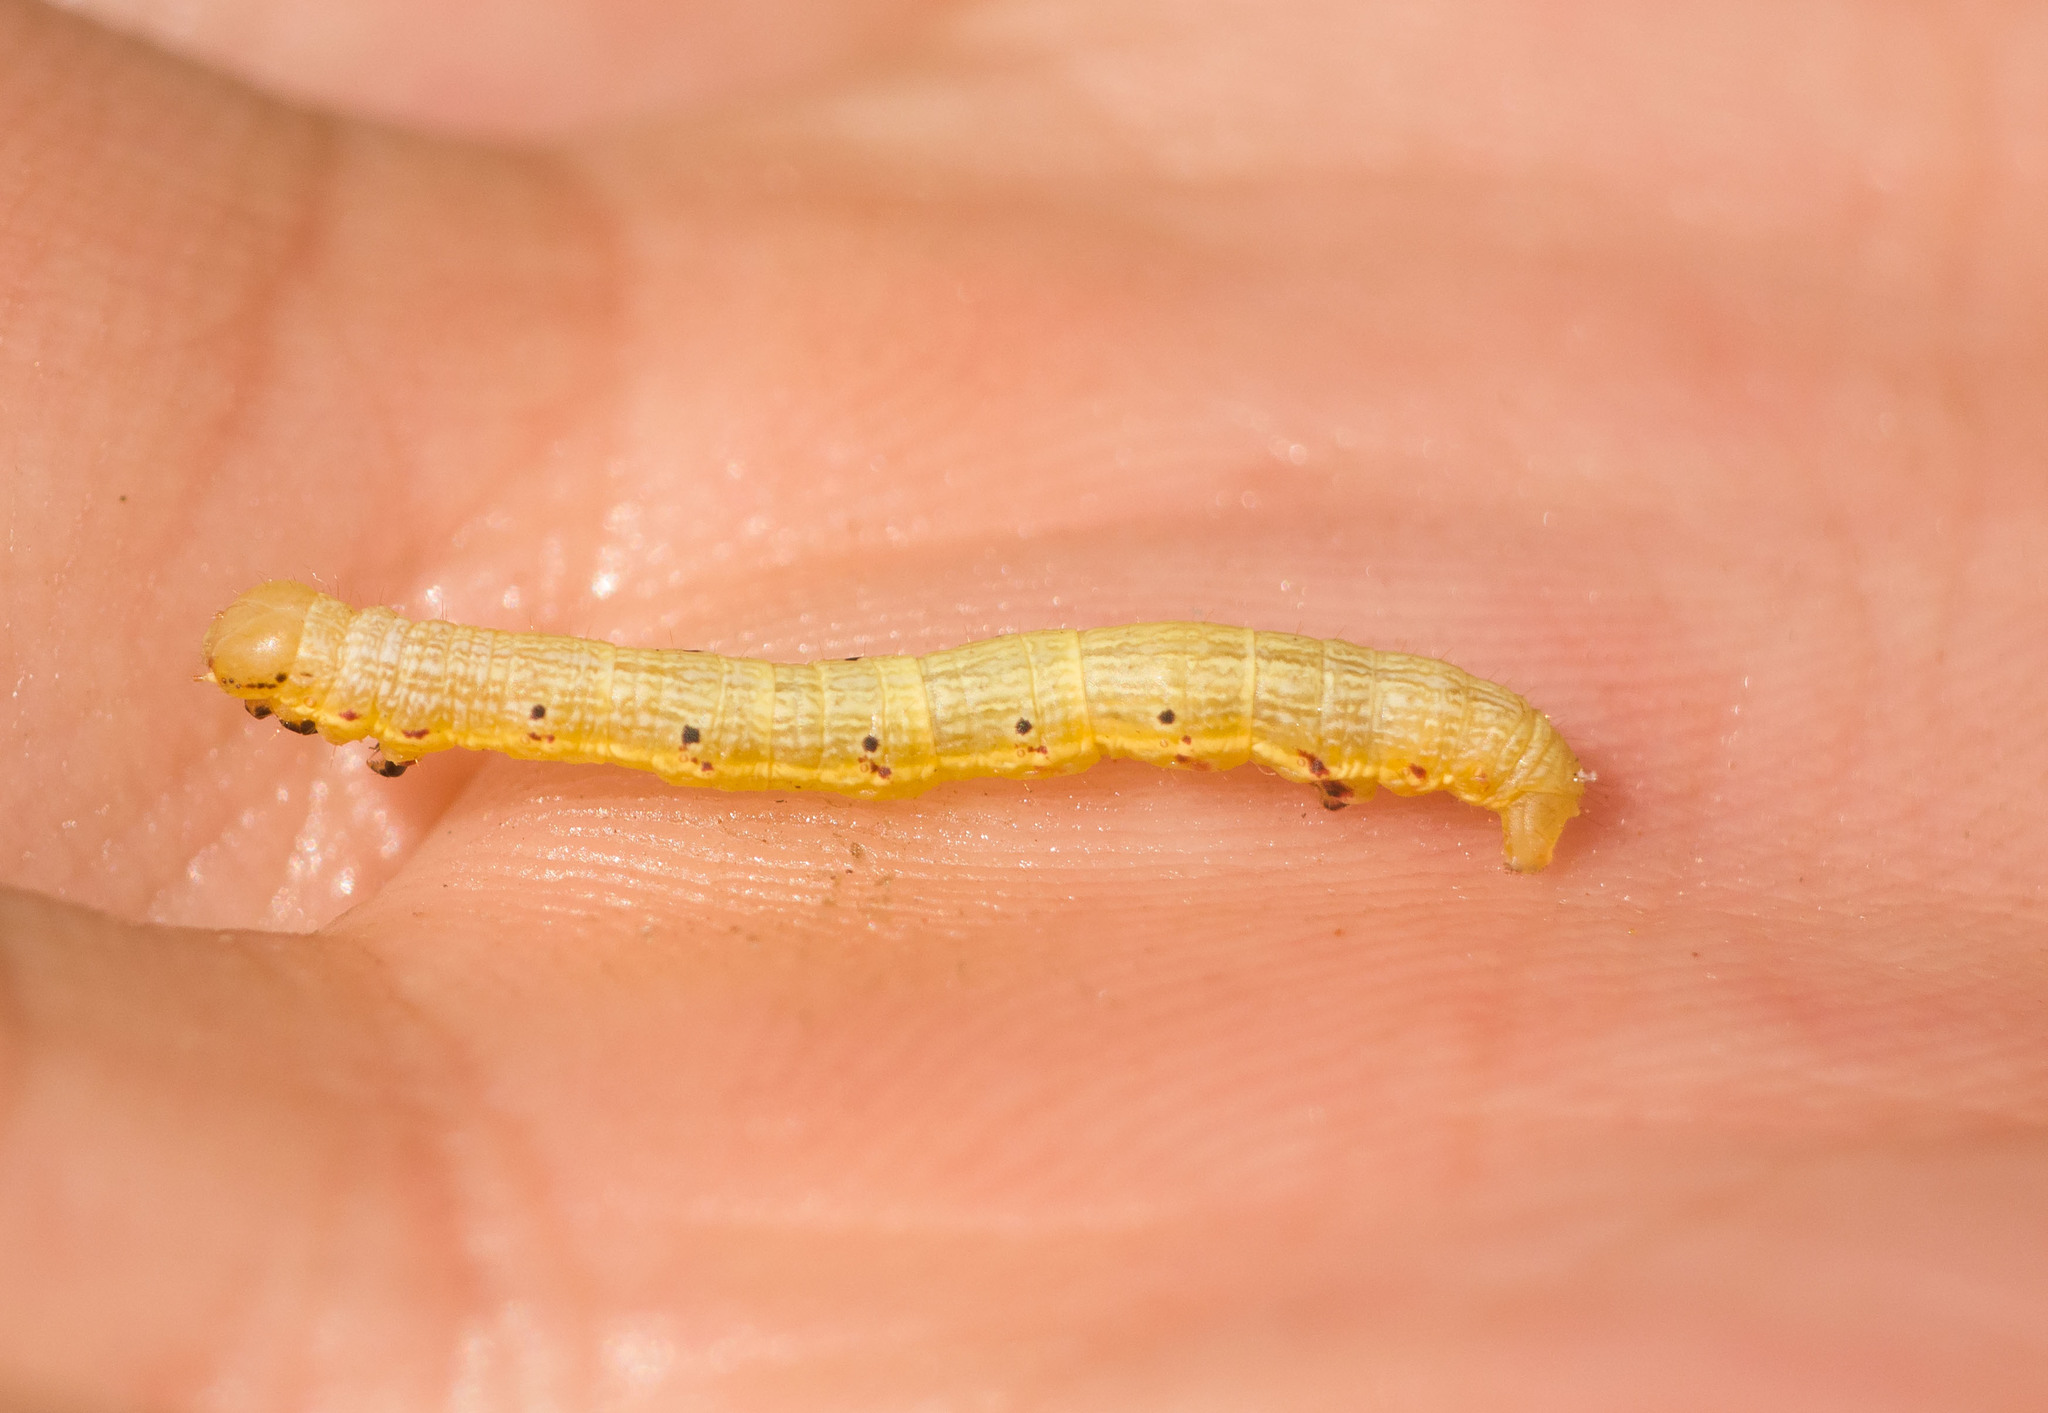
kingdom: Animalia
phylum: Arthropoda
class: Insecta
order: Lepidoptera
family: Geometridae
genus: Macaria
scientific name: Macaria abydata
